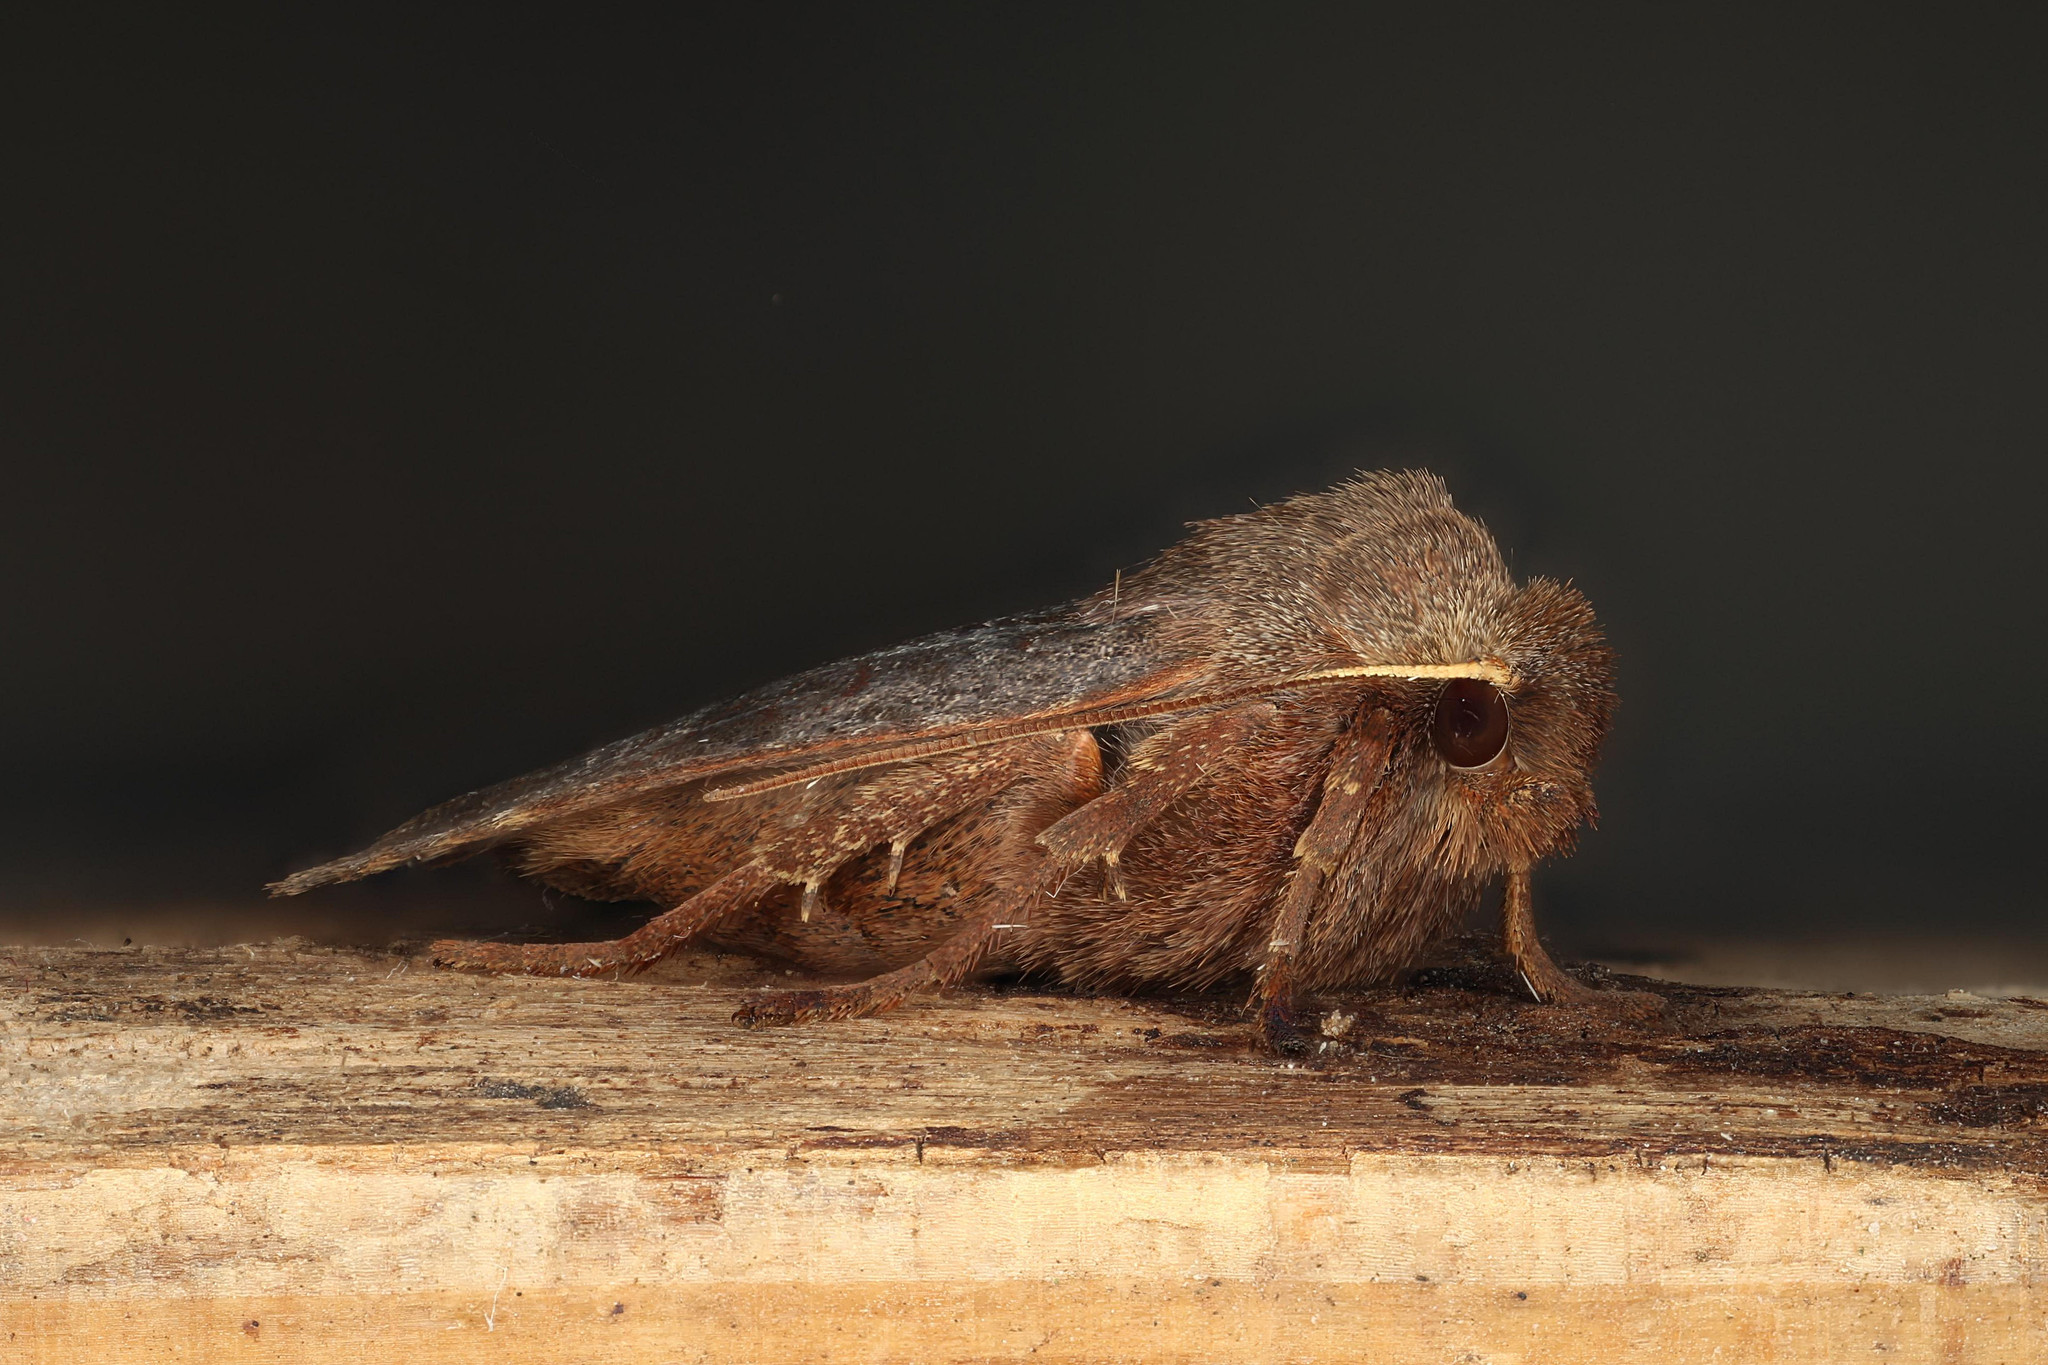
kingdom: Animalia
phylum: Arthropoda
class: Insecta
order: Lepidoptera
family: Noctuidae
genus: Conistra
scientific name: Conistra vaccinii
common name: Chestnut
